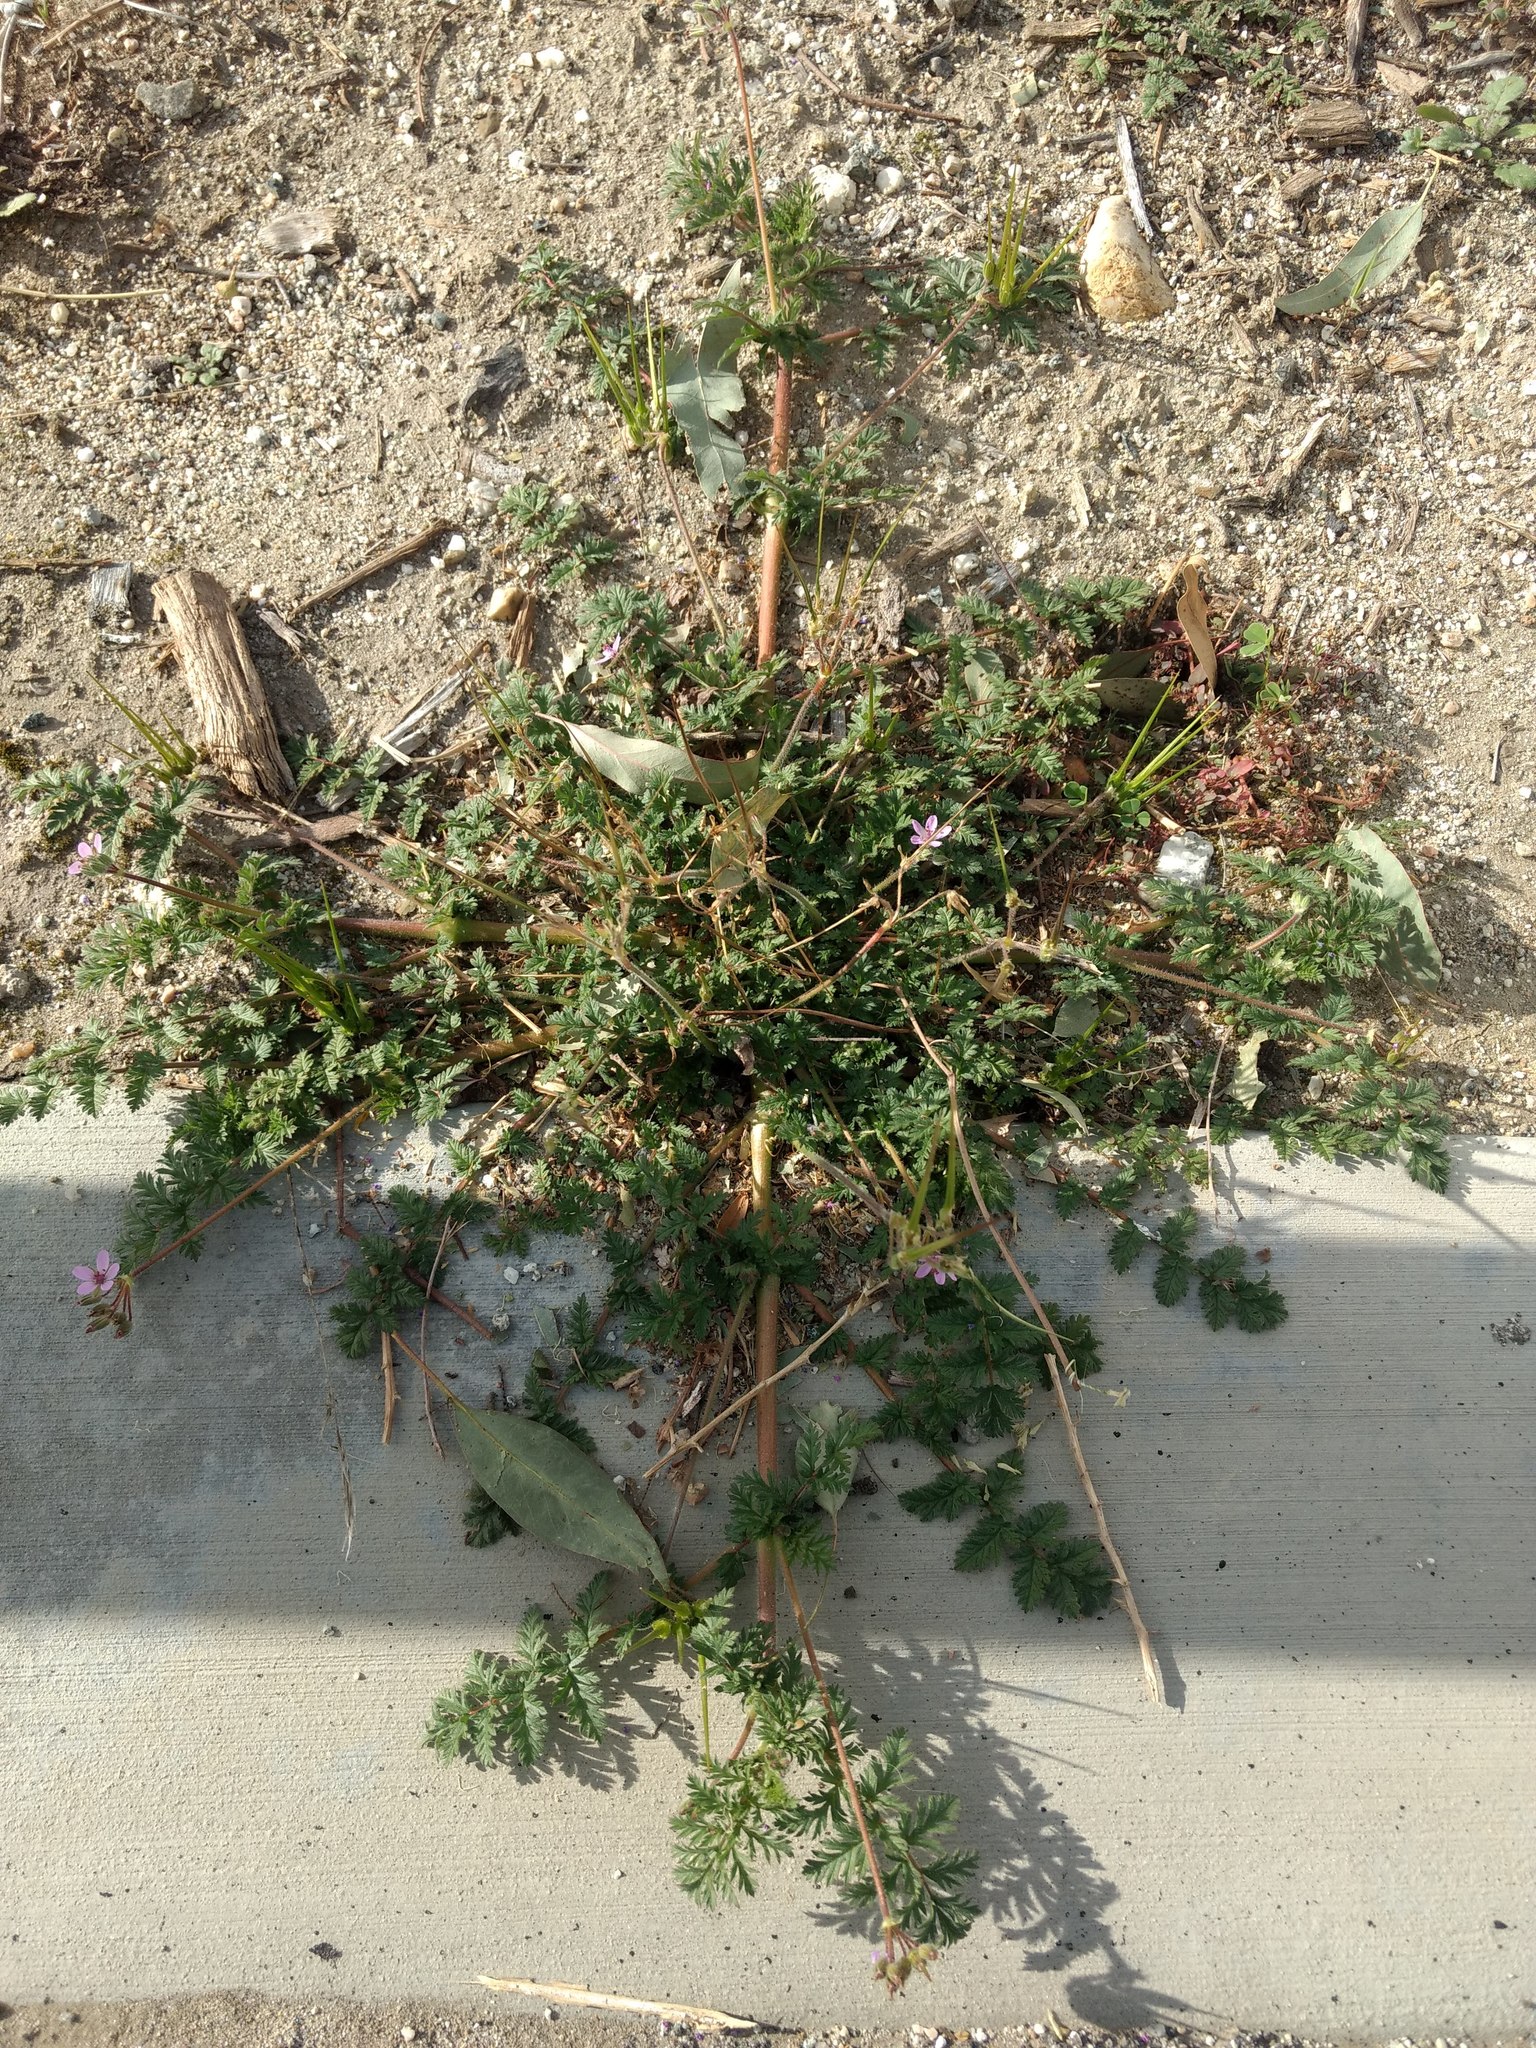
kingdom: Plantae
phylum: Tracheophyta
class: Magnoliopsida
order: Geraniales
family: Geraniaceae
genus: Erodium
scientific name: Erodium cicutarium
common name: Common stork's-bill
